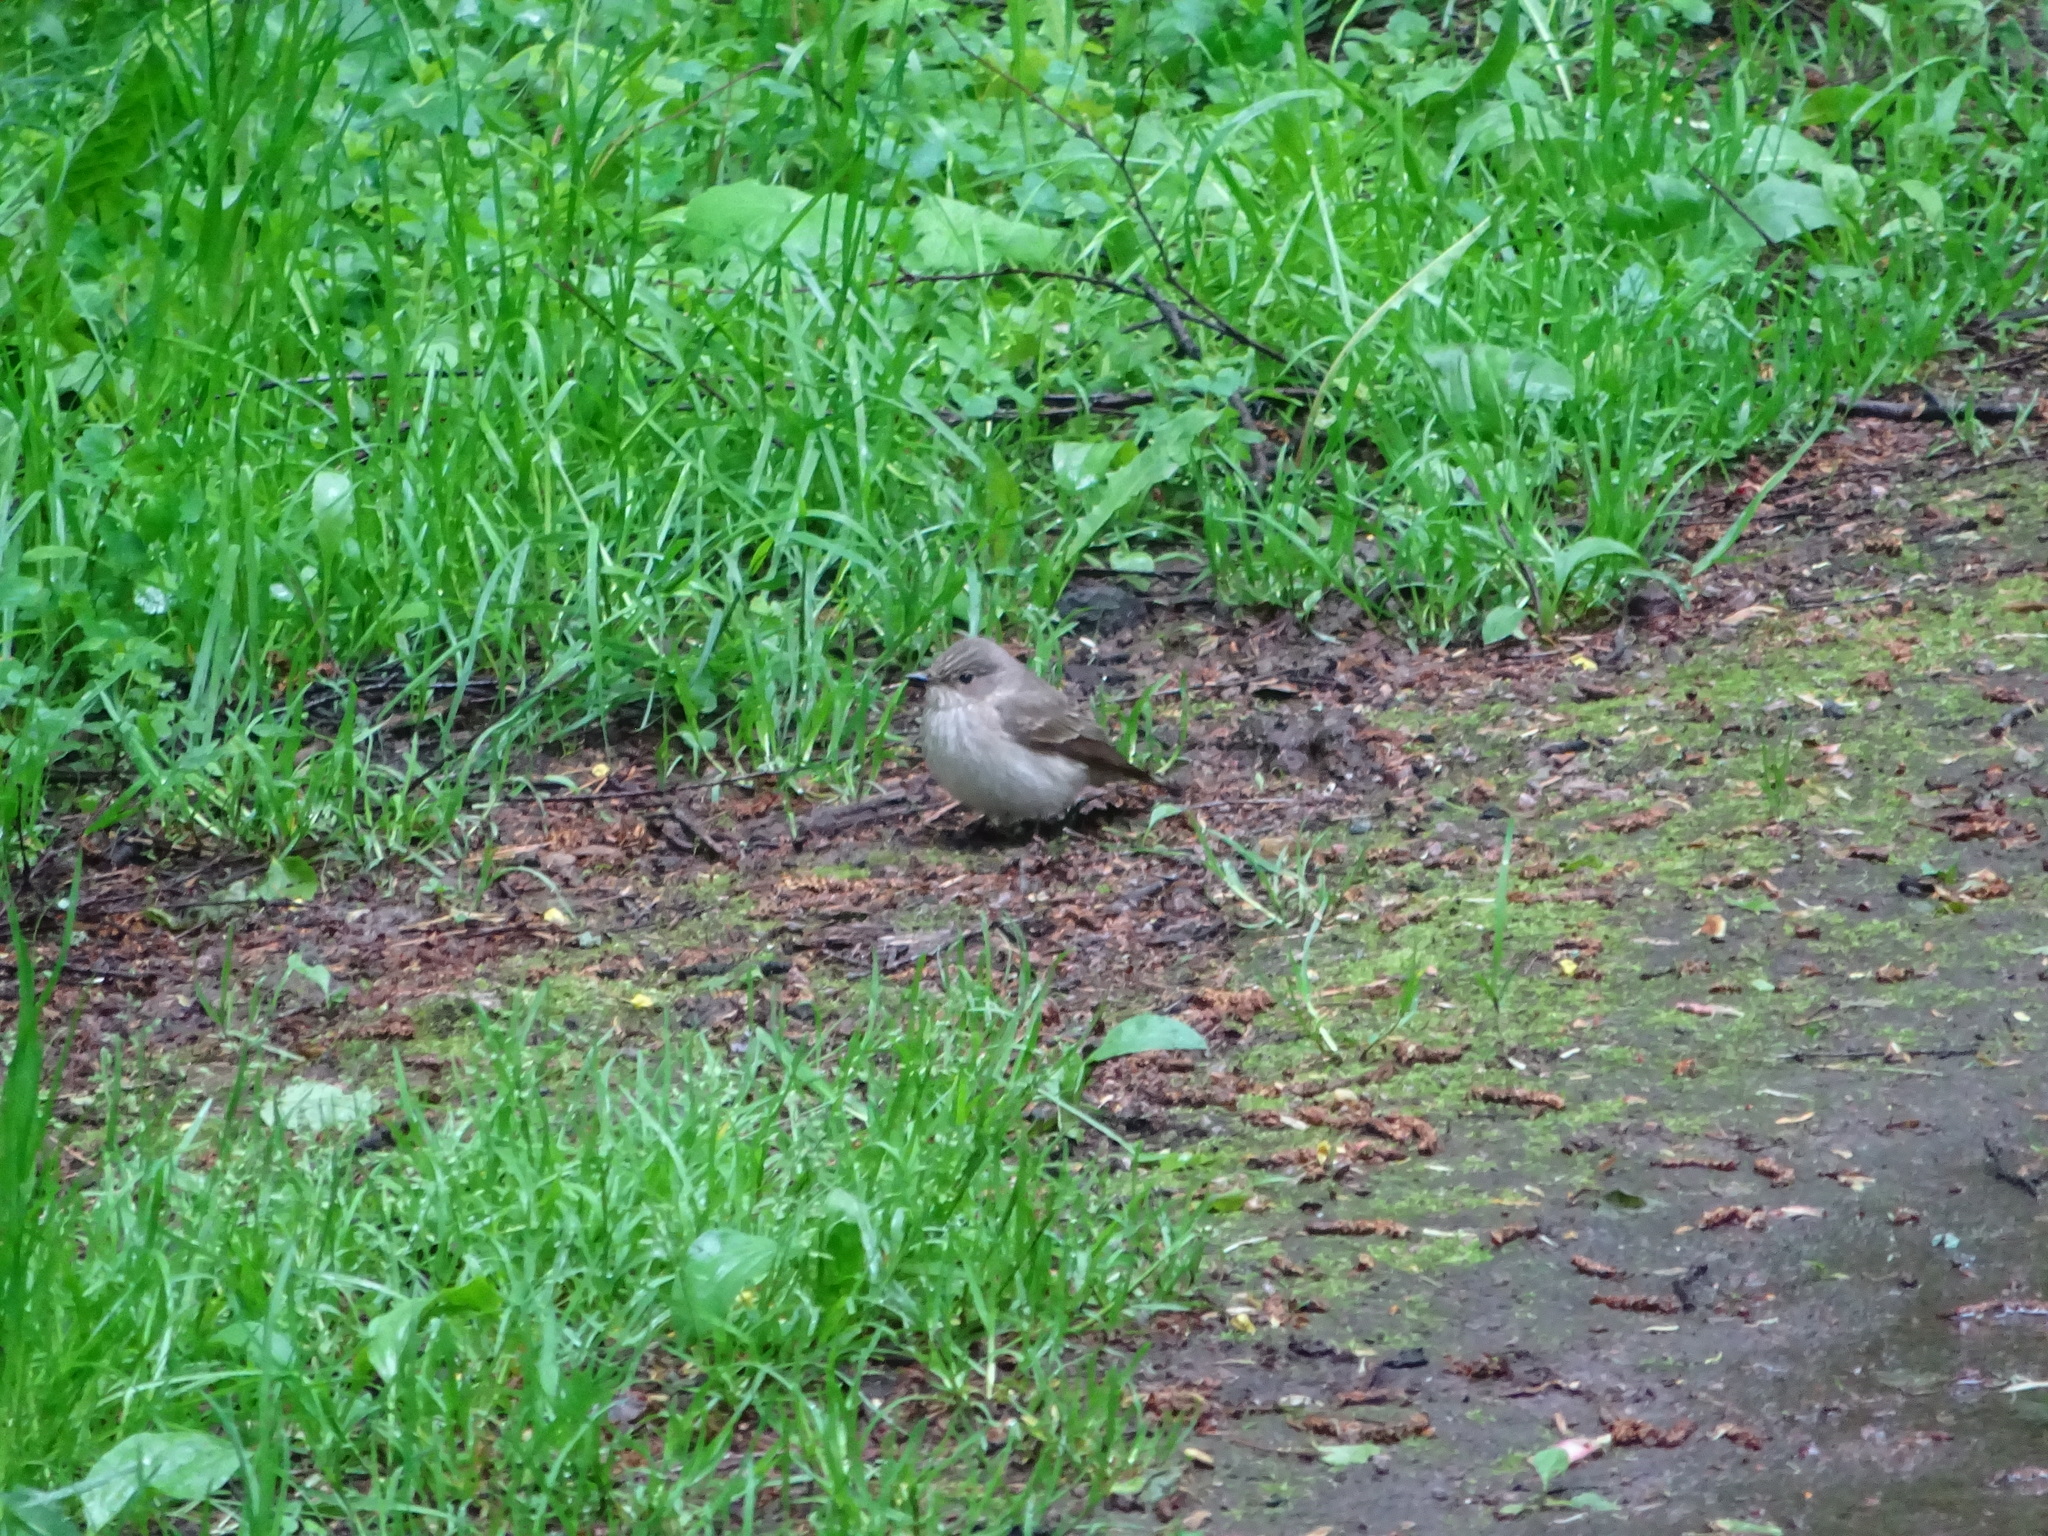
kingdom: Animalia
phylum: Chordata
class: Aves
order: Passeriformes
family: Muscicapidae
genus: Muscicapa
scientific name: Muscicapa striata
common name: Spotted flycatcher
